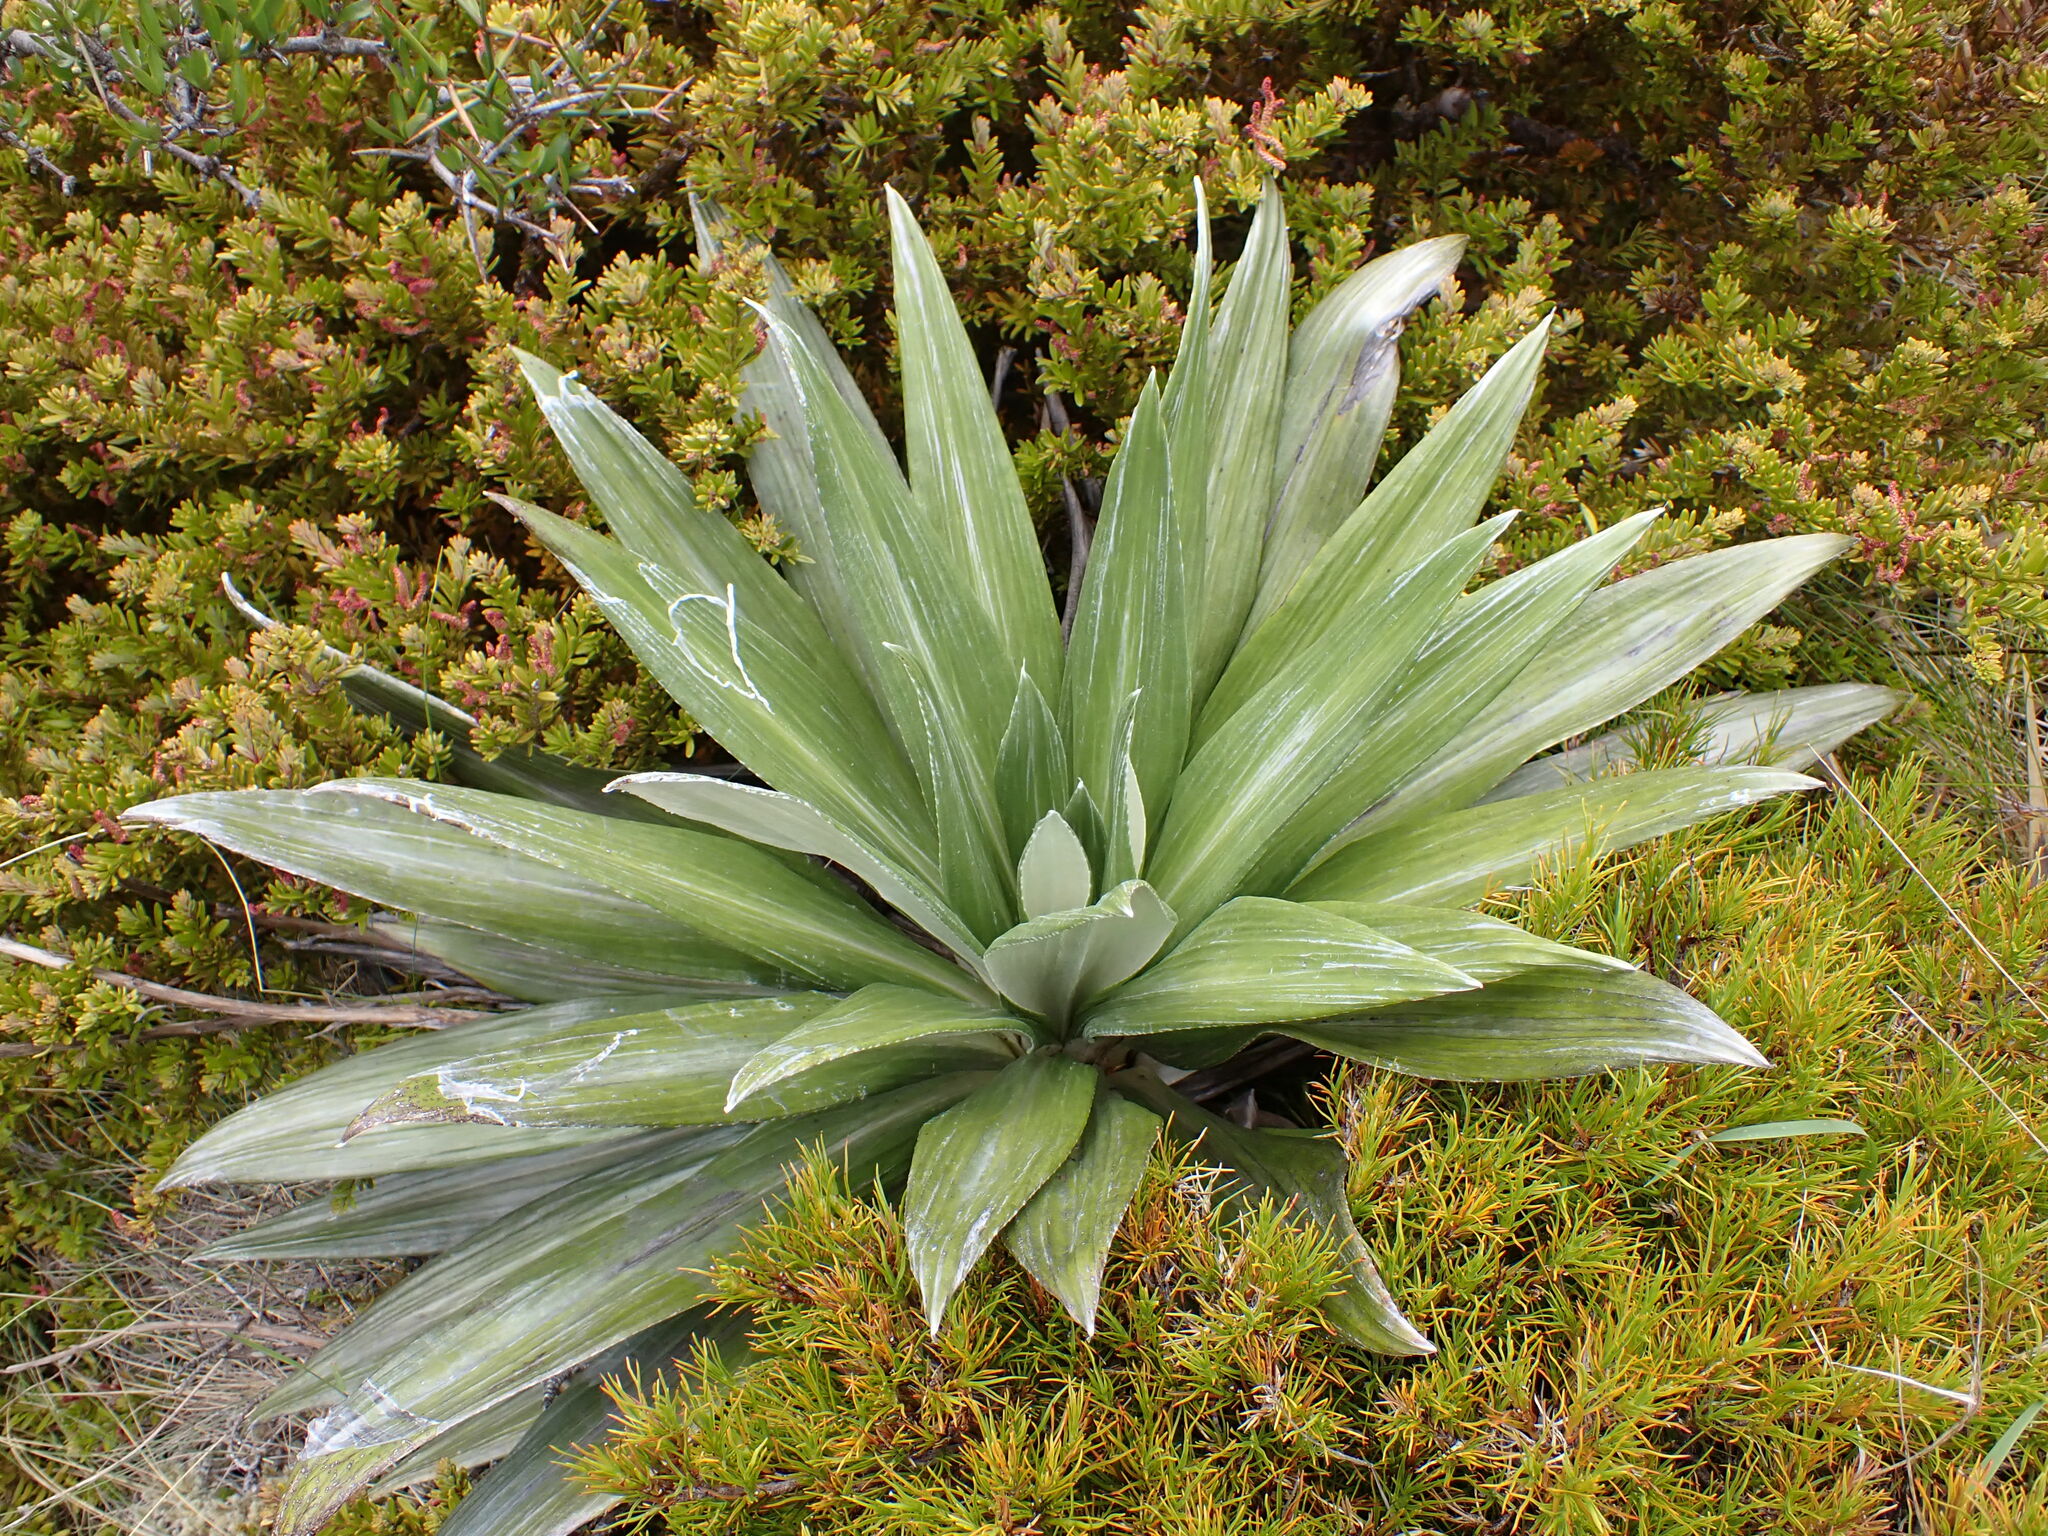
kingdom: Plantae
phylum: Tracheophyta
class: Magnoliopsida
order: Asterales
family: Asteraceae
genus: Celmisia
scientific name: Celmisia semicordata
